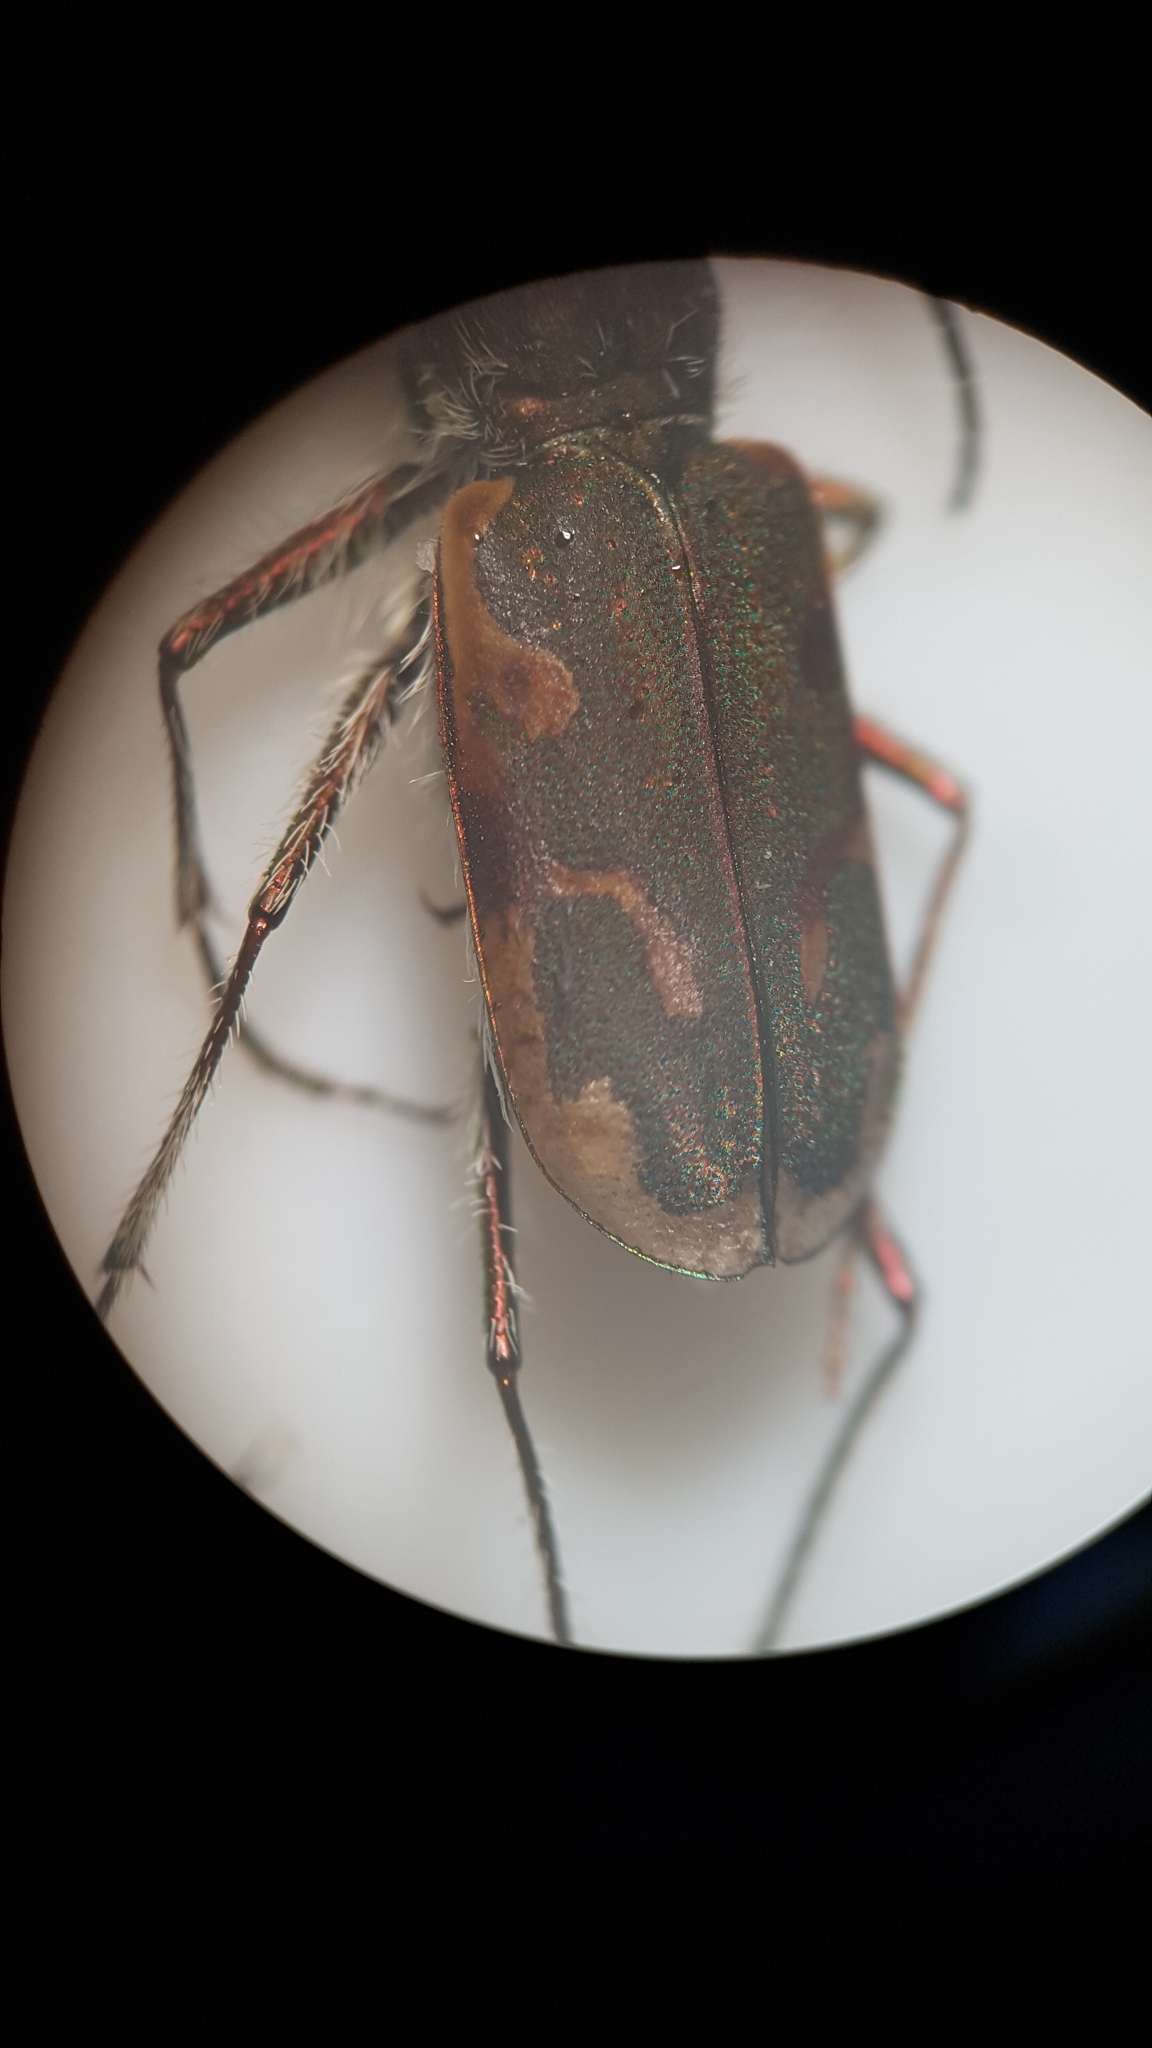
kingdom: Animalia
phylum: Arthropoda
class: Insecta
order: Coleoptera
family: Carabidae
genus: Zecicindela
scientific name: Zecicindela feredayi
